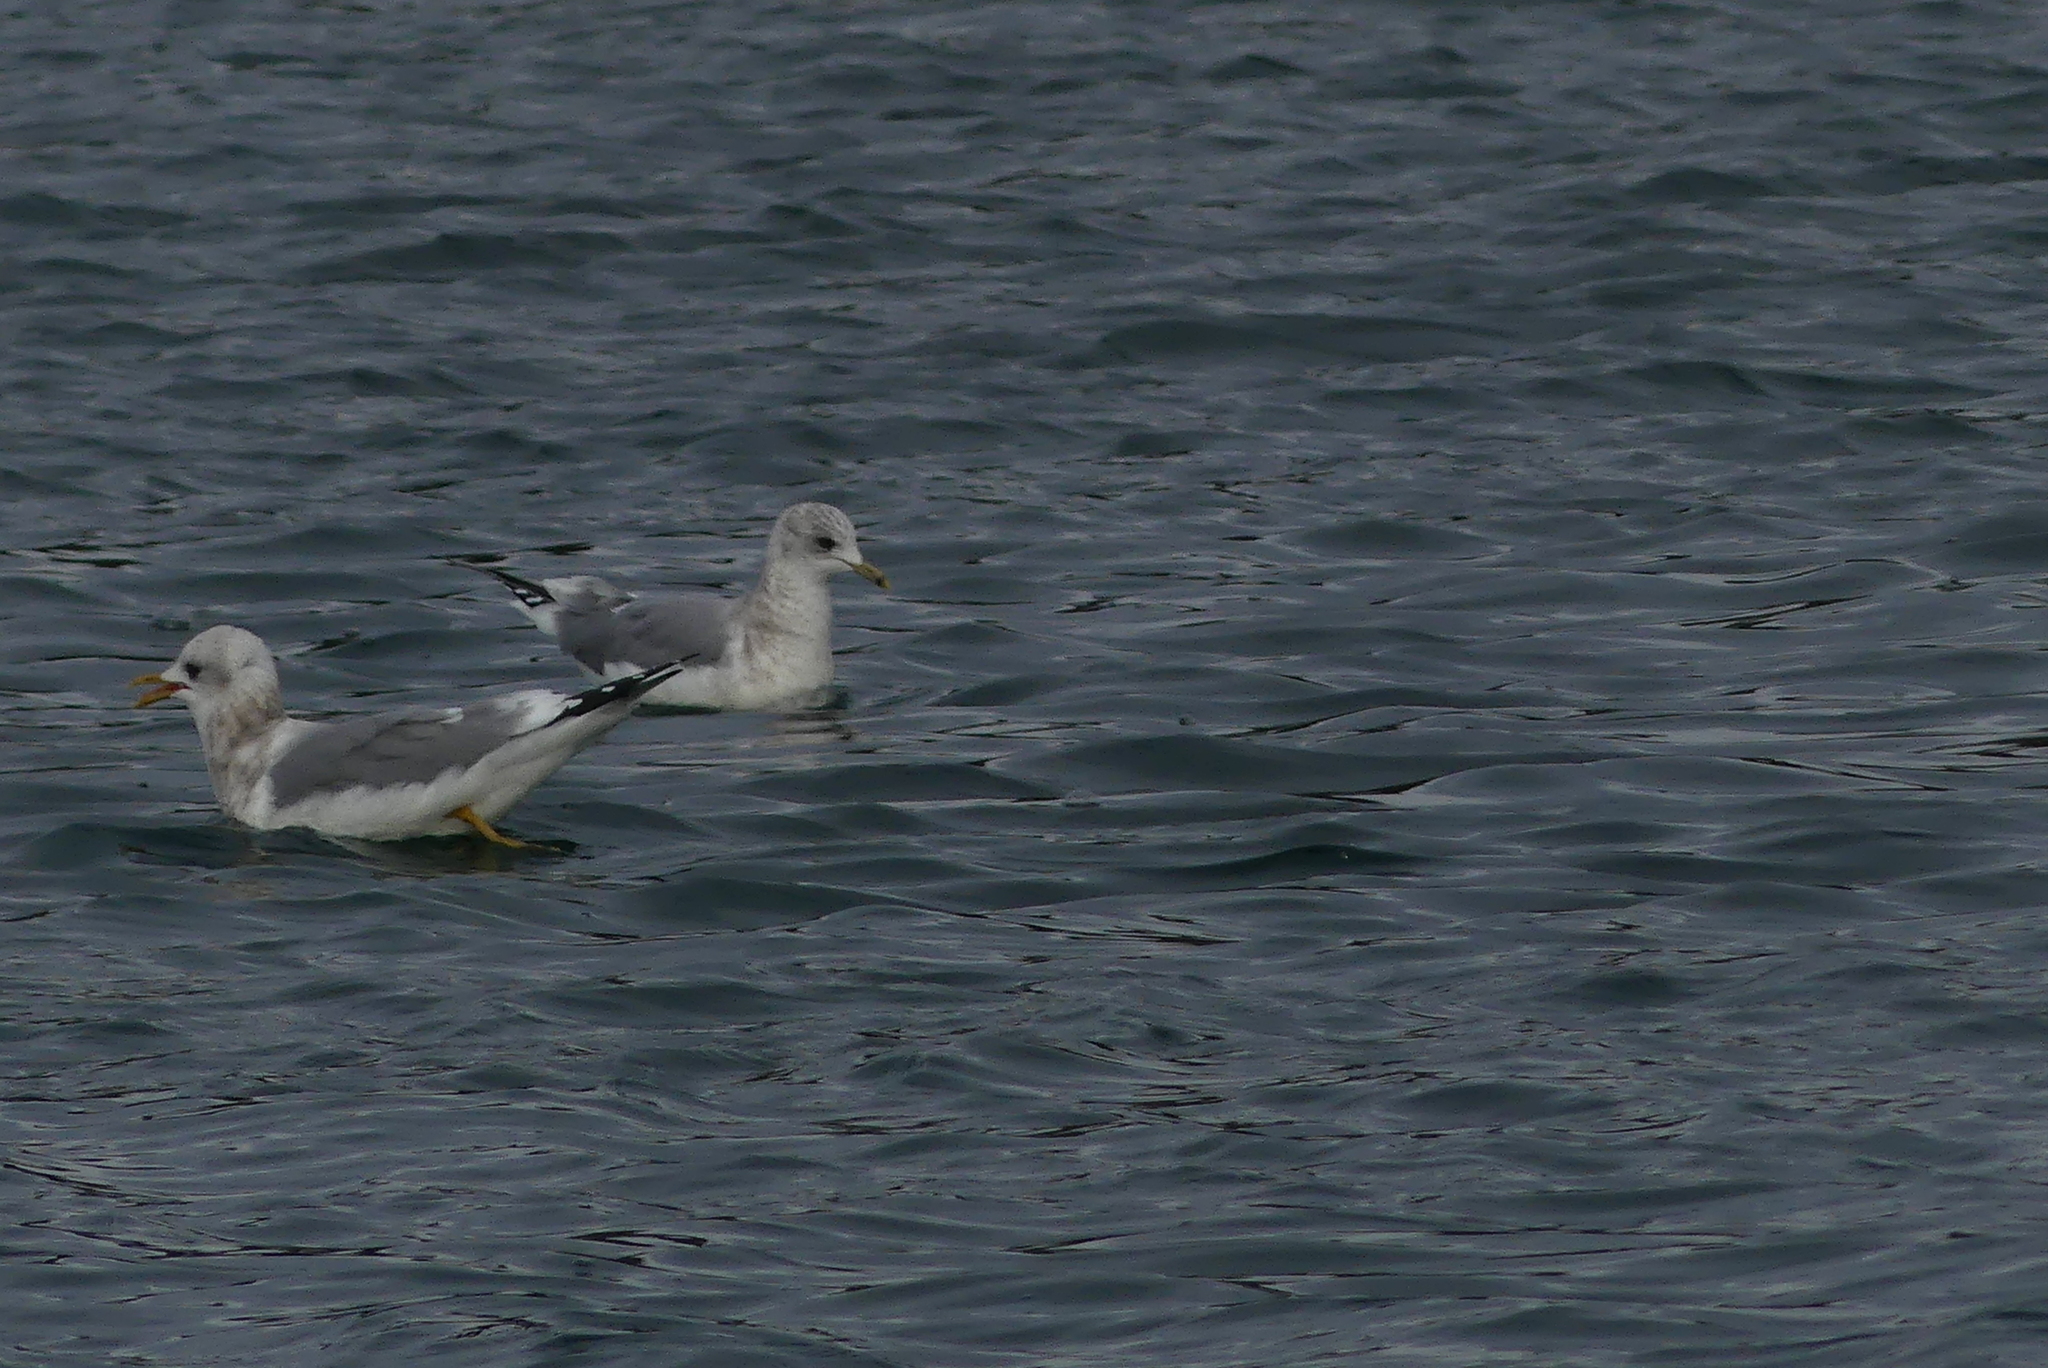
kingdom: Animalia
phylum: Chordata
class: Aves
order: Charadriiformes
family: Laridae
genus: Larus
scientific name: Larus brachyrhynchus
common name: Short-billed gull
